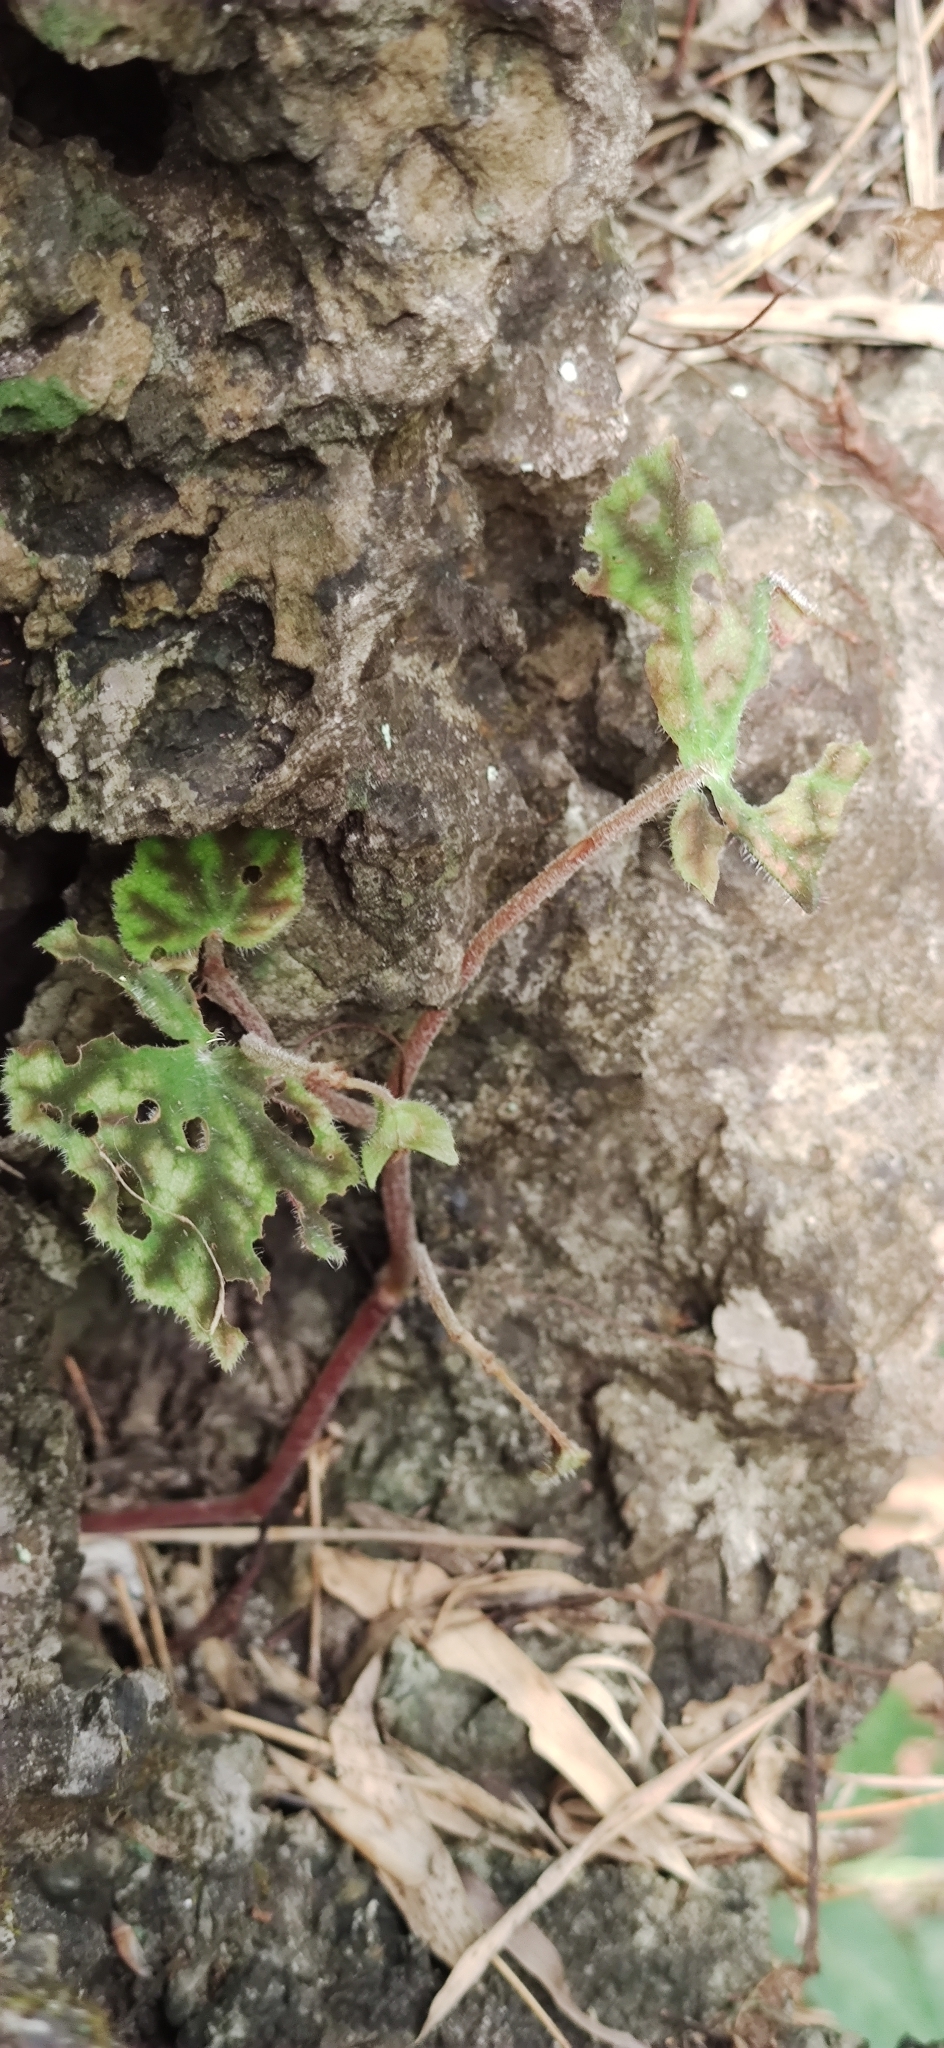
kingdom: Plantae
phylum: Tracheophyta
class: Magnoliopsida
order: Cucurbitales
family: Begoniaceae
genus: Begonia
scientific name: Begonia murina
